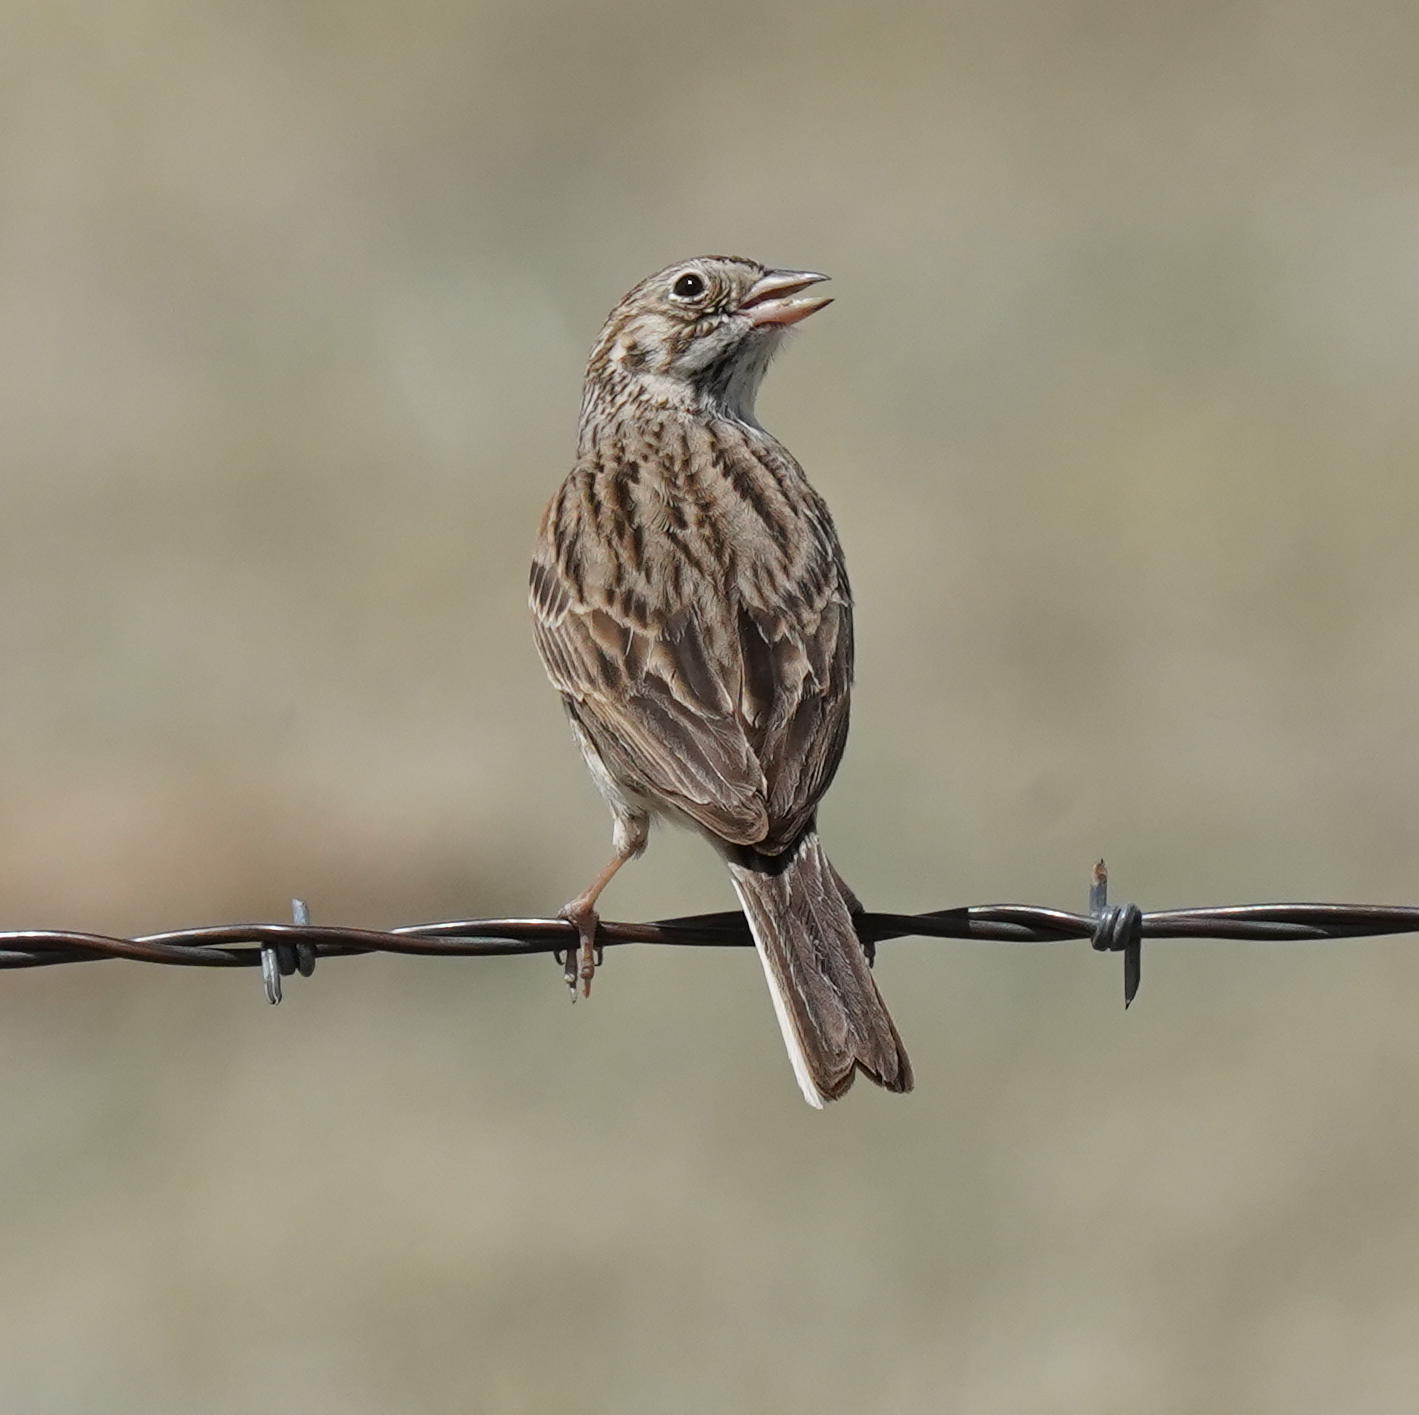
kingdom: Animalia
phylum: Chordata
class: Aves
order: Passeriformes
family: Passerellidae
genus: Pooecetes
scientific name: Pooecetes gramineus
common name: Vesper sparrow
